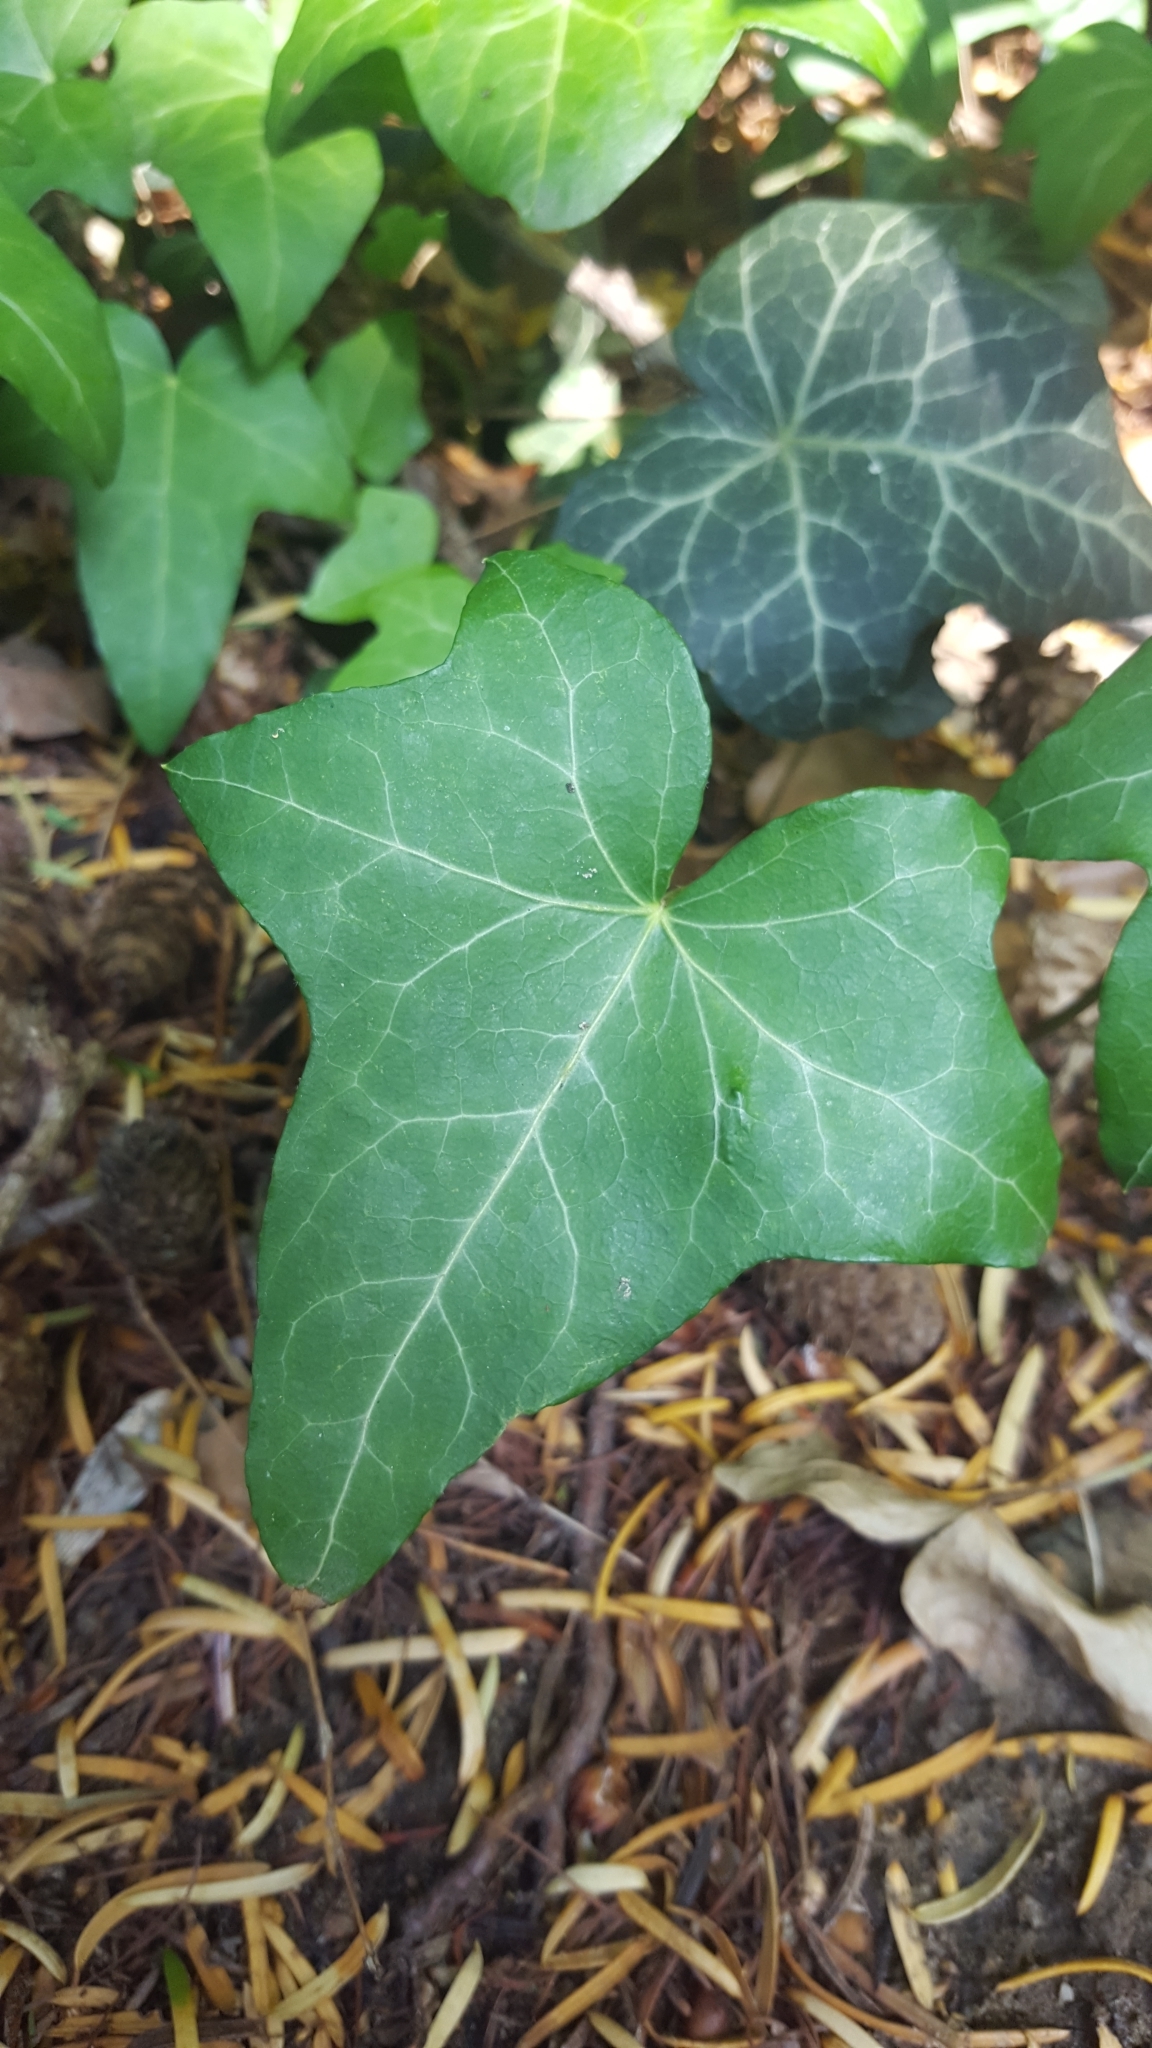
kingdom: Plantae
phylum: Tracheophyta
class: Magnoliopsida
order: Apiales
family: Araliaceae
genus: Hedera
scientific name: Hedera helix
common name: Ivy
